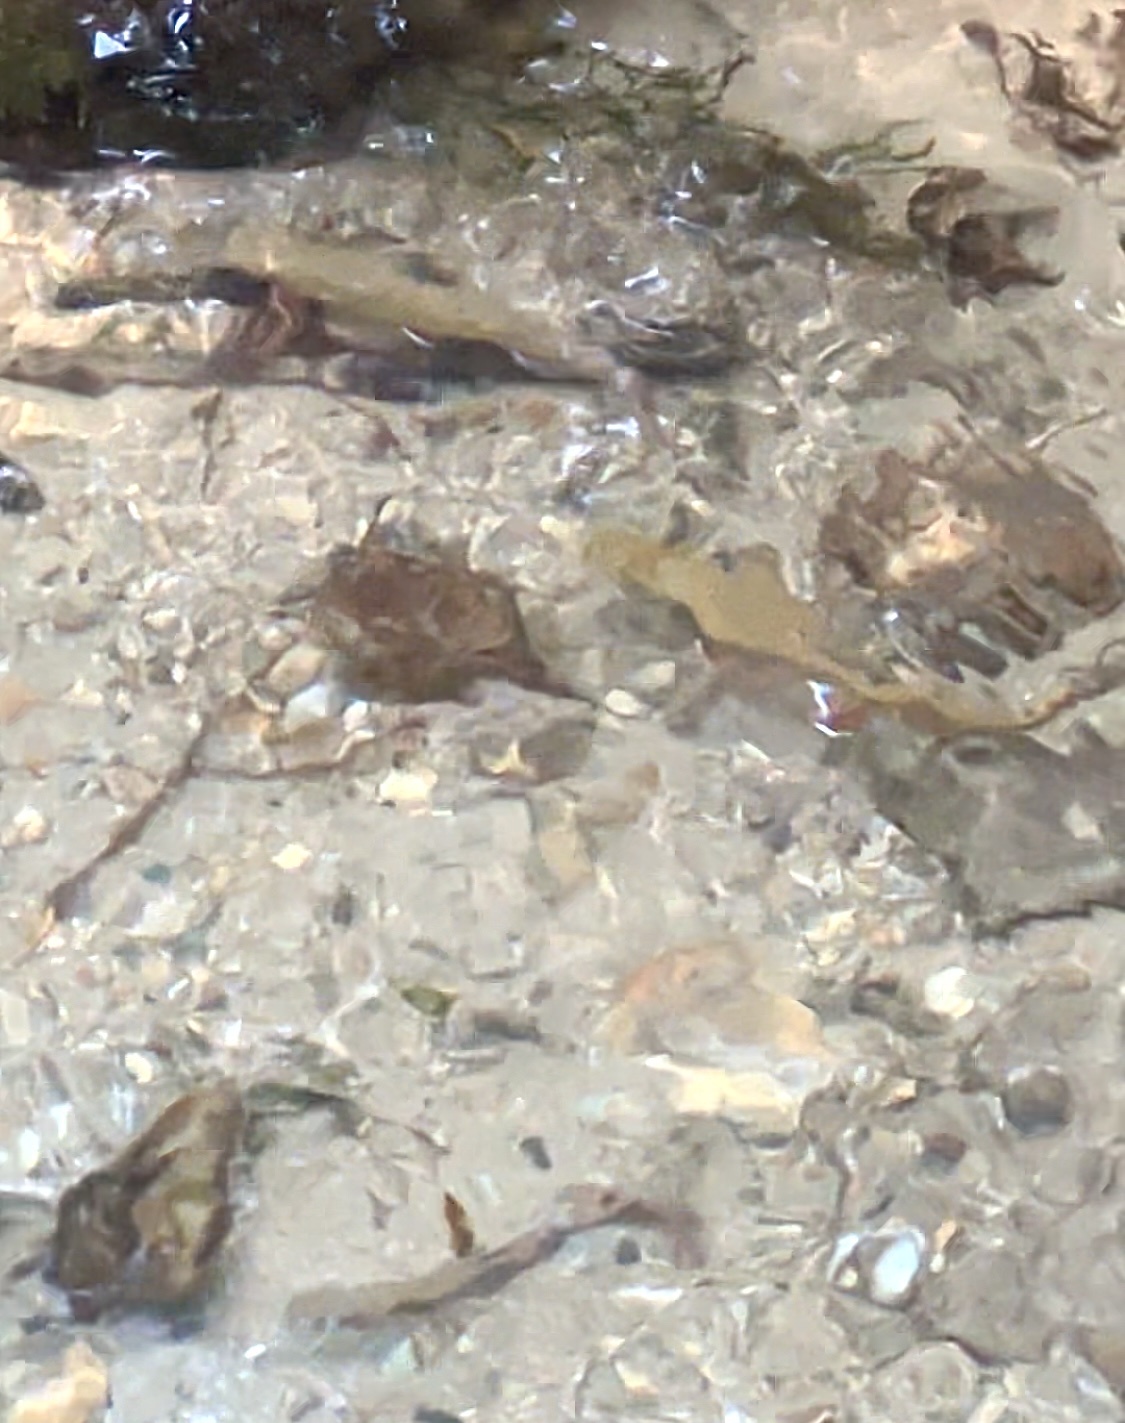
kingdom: Animalia
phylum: Chordata
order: Salmoniformes
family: Salmonidae
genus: Salvelinus
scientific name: Salvelinus fontinalis
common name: Brook trout
